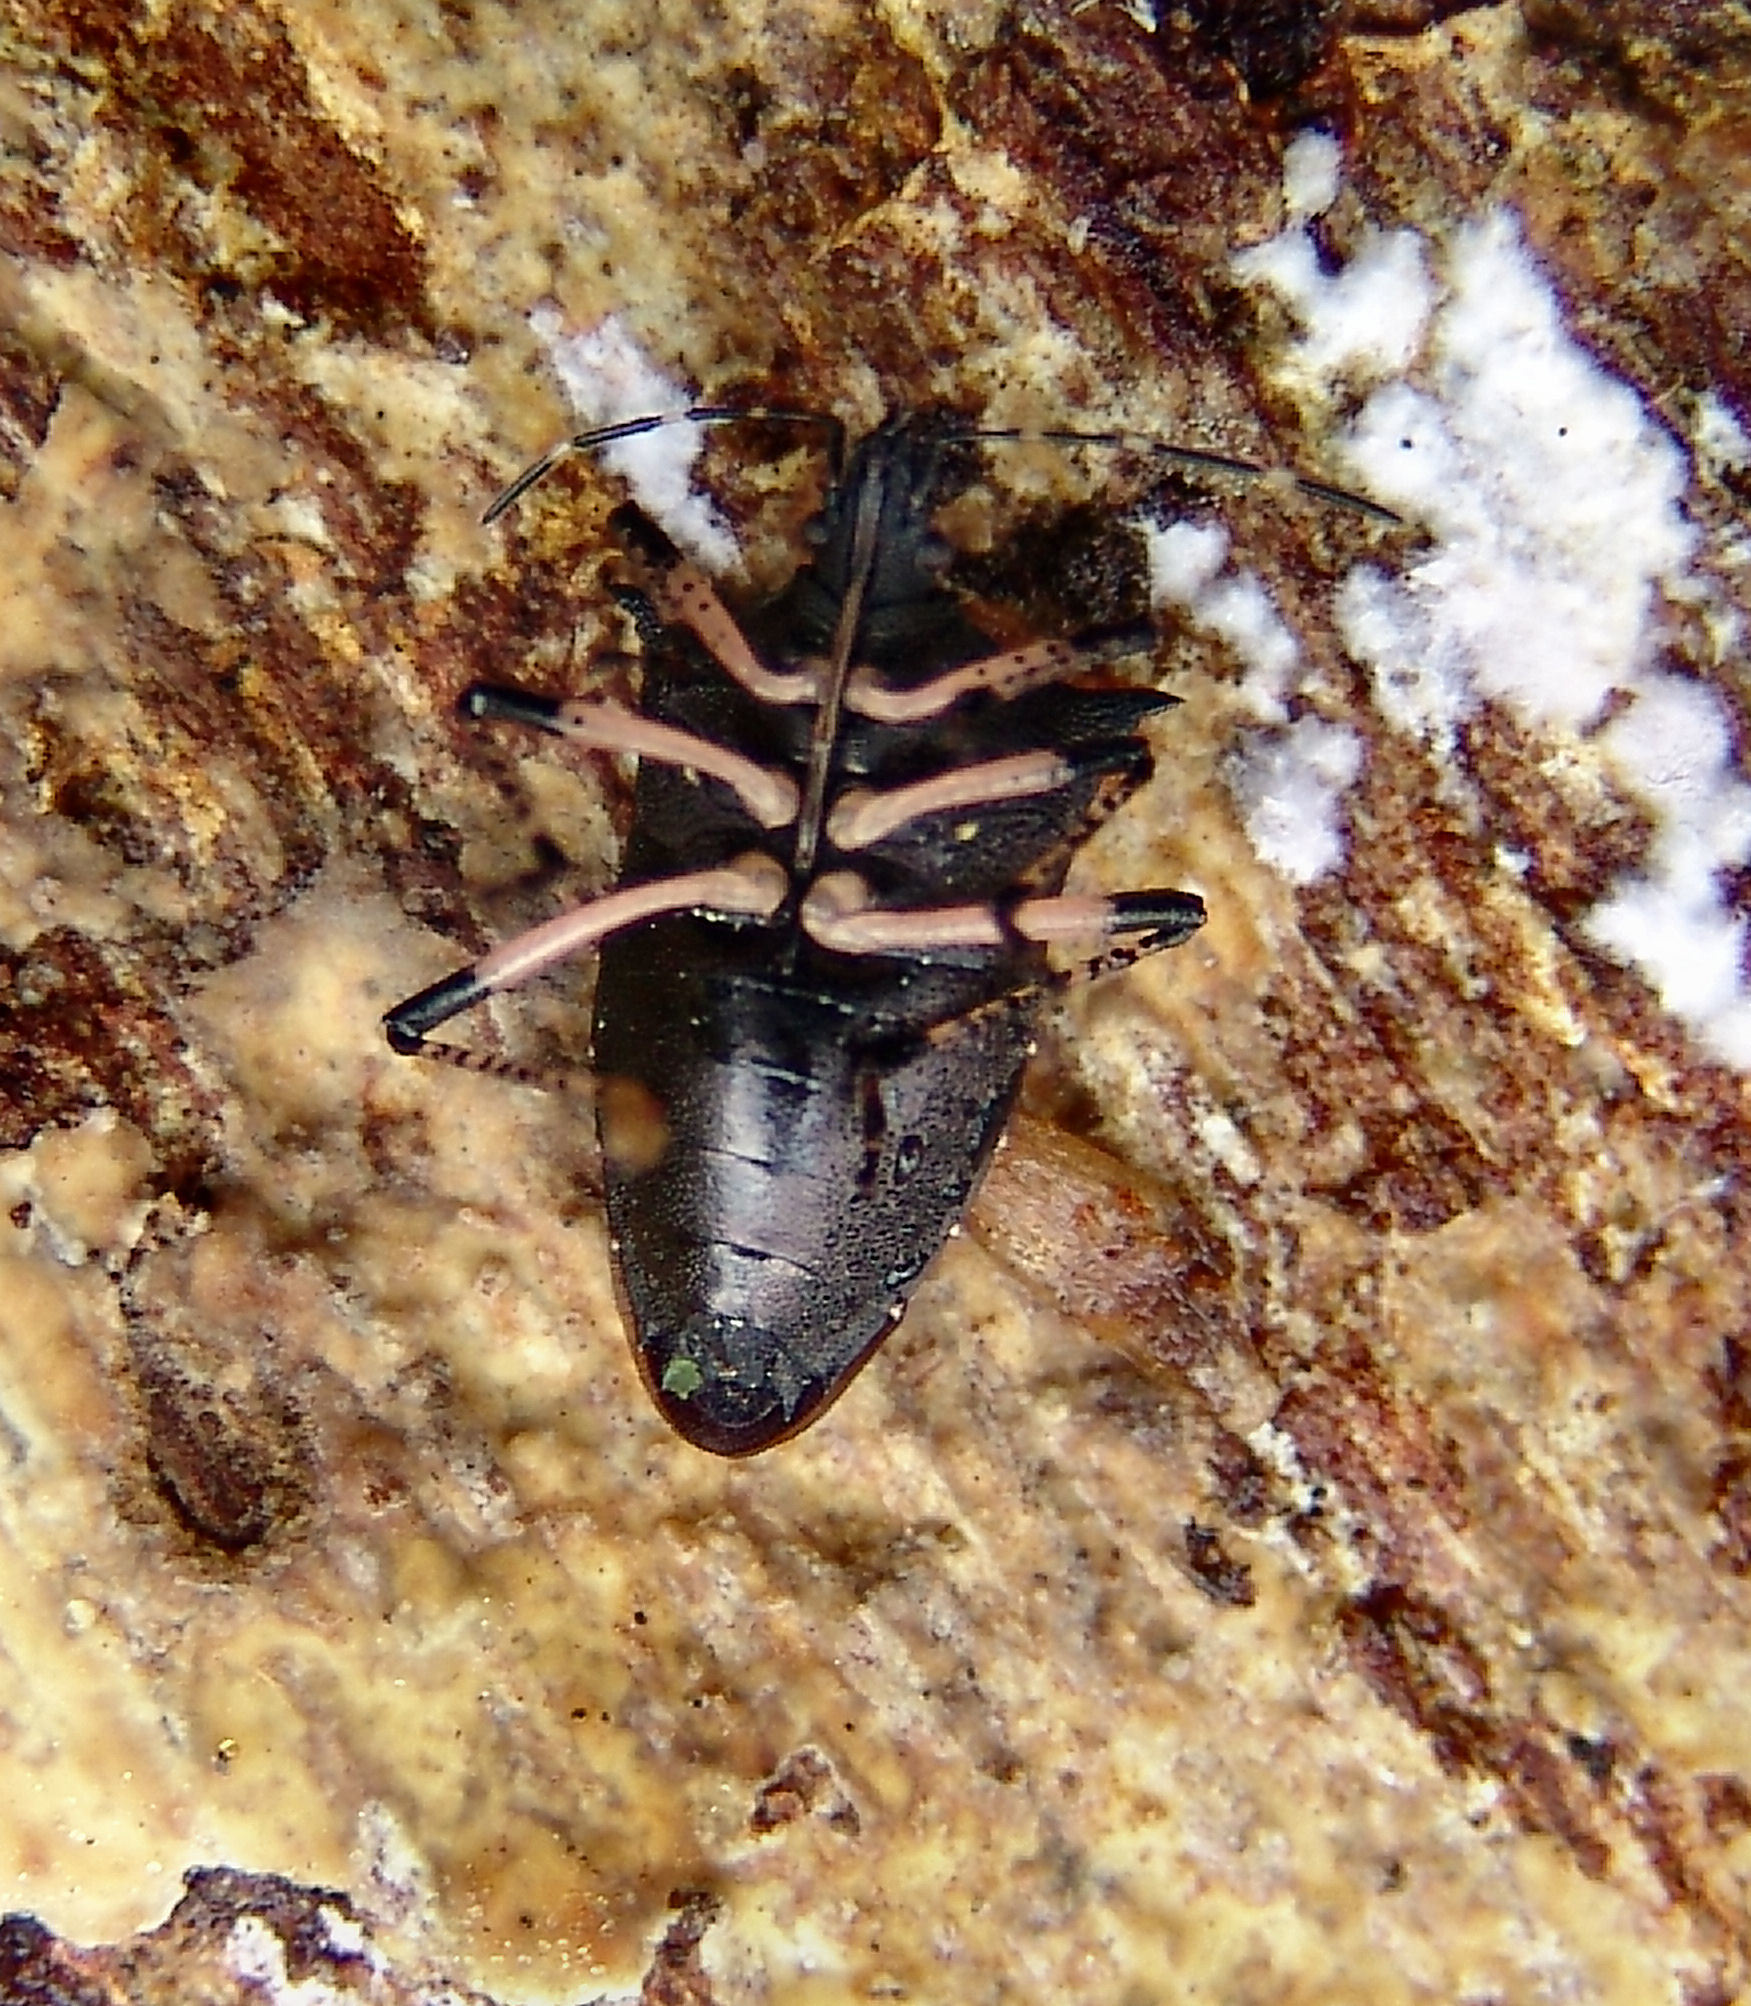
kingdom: Animalia
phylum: Arthropoda
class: Insecta
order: Hemiptera
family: Pentatomidae
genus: Proxys
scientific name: Proxys punctulatus
